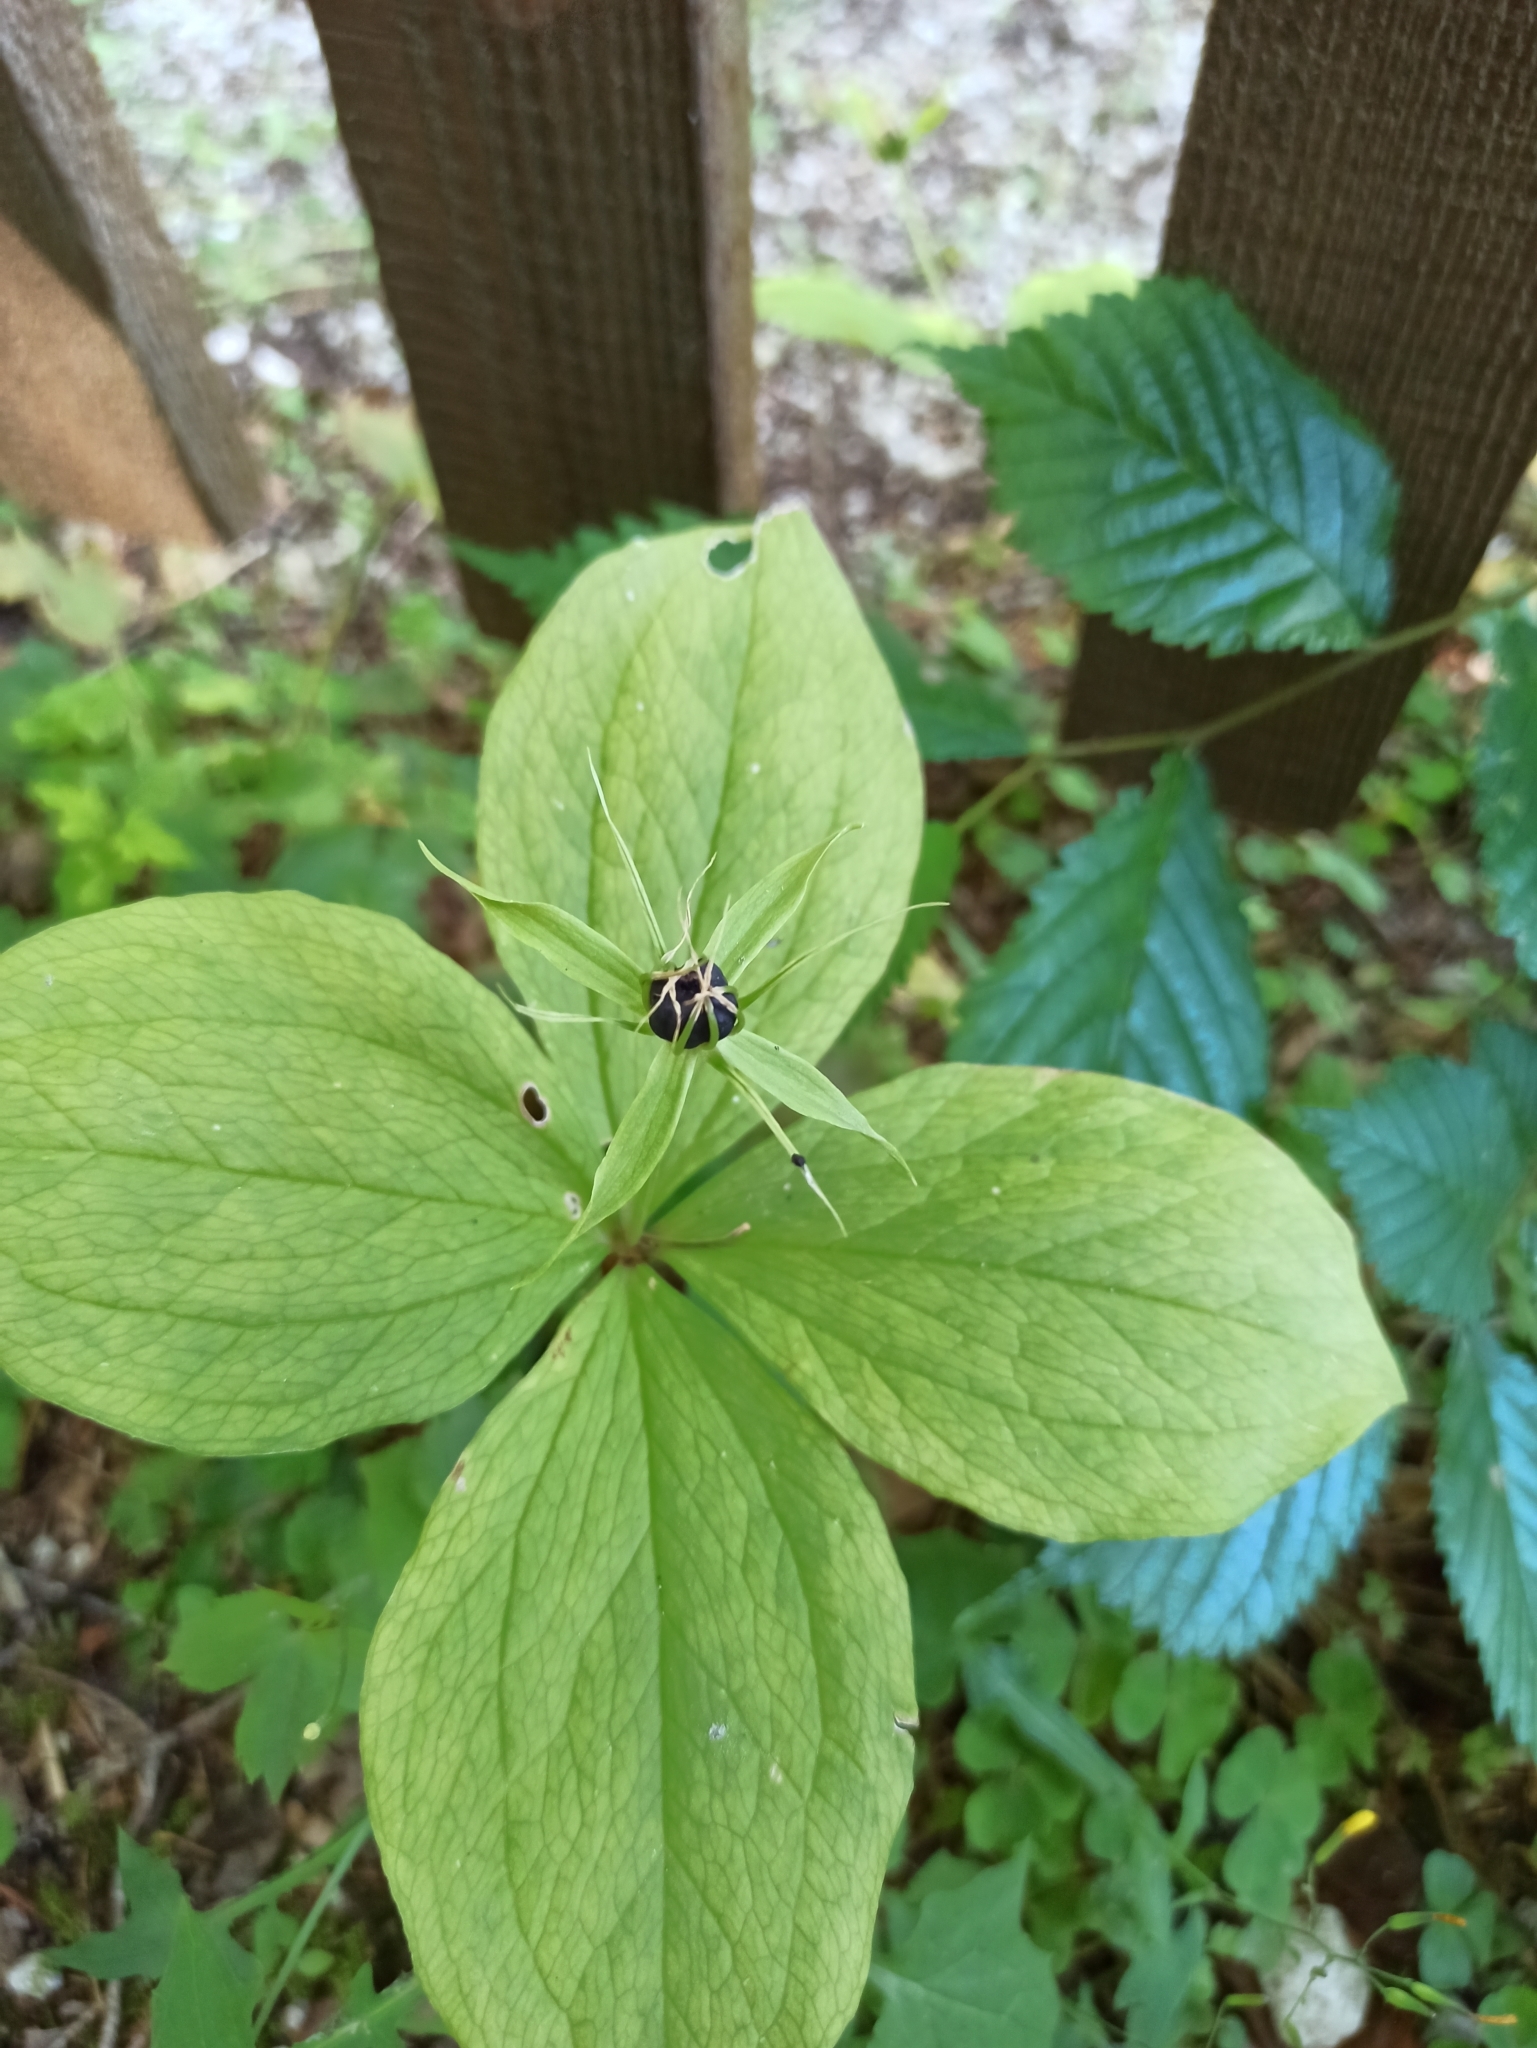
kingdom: Plantae
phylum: Tracheophyta
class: Liliopsida
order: Liliales
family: Melanthiaceae
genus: Paris
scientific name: Paris quadrifolia
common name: Herb-paris
